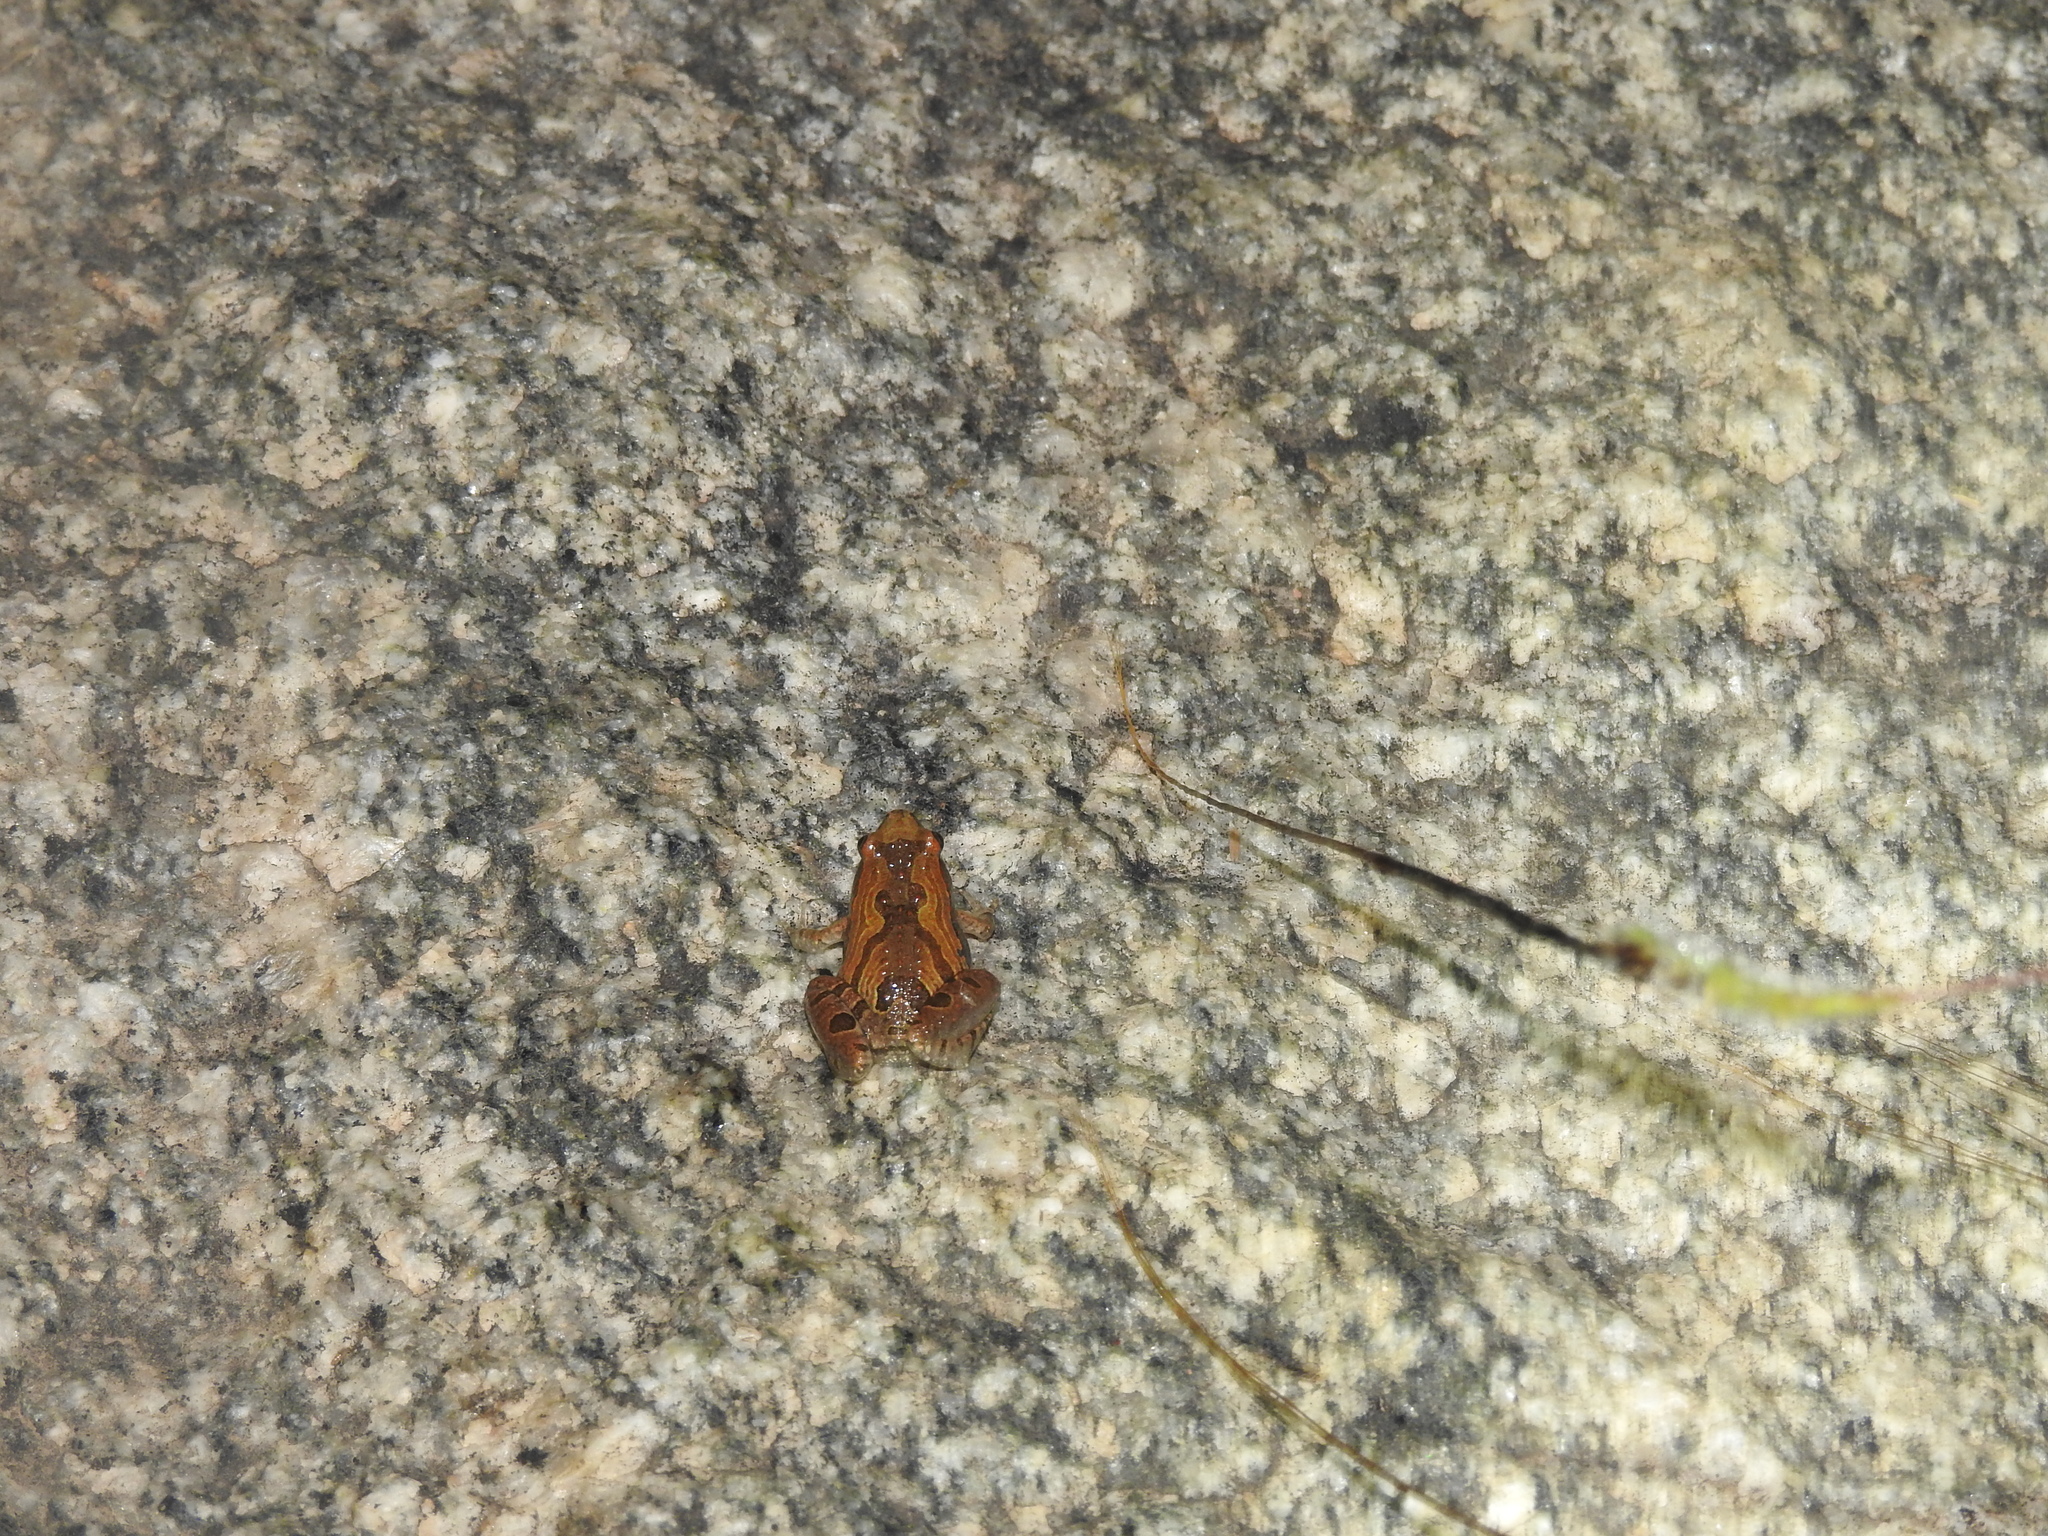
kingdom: Animalia
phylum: Chordata
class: Amphibia
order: Anura
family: Microhylidae
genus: Microhyla
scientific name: Microhyla ornata
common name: Ant frog
